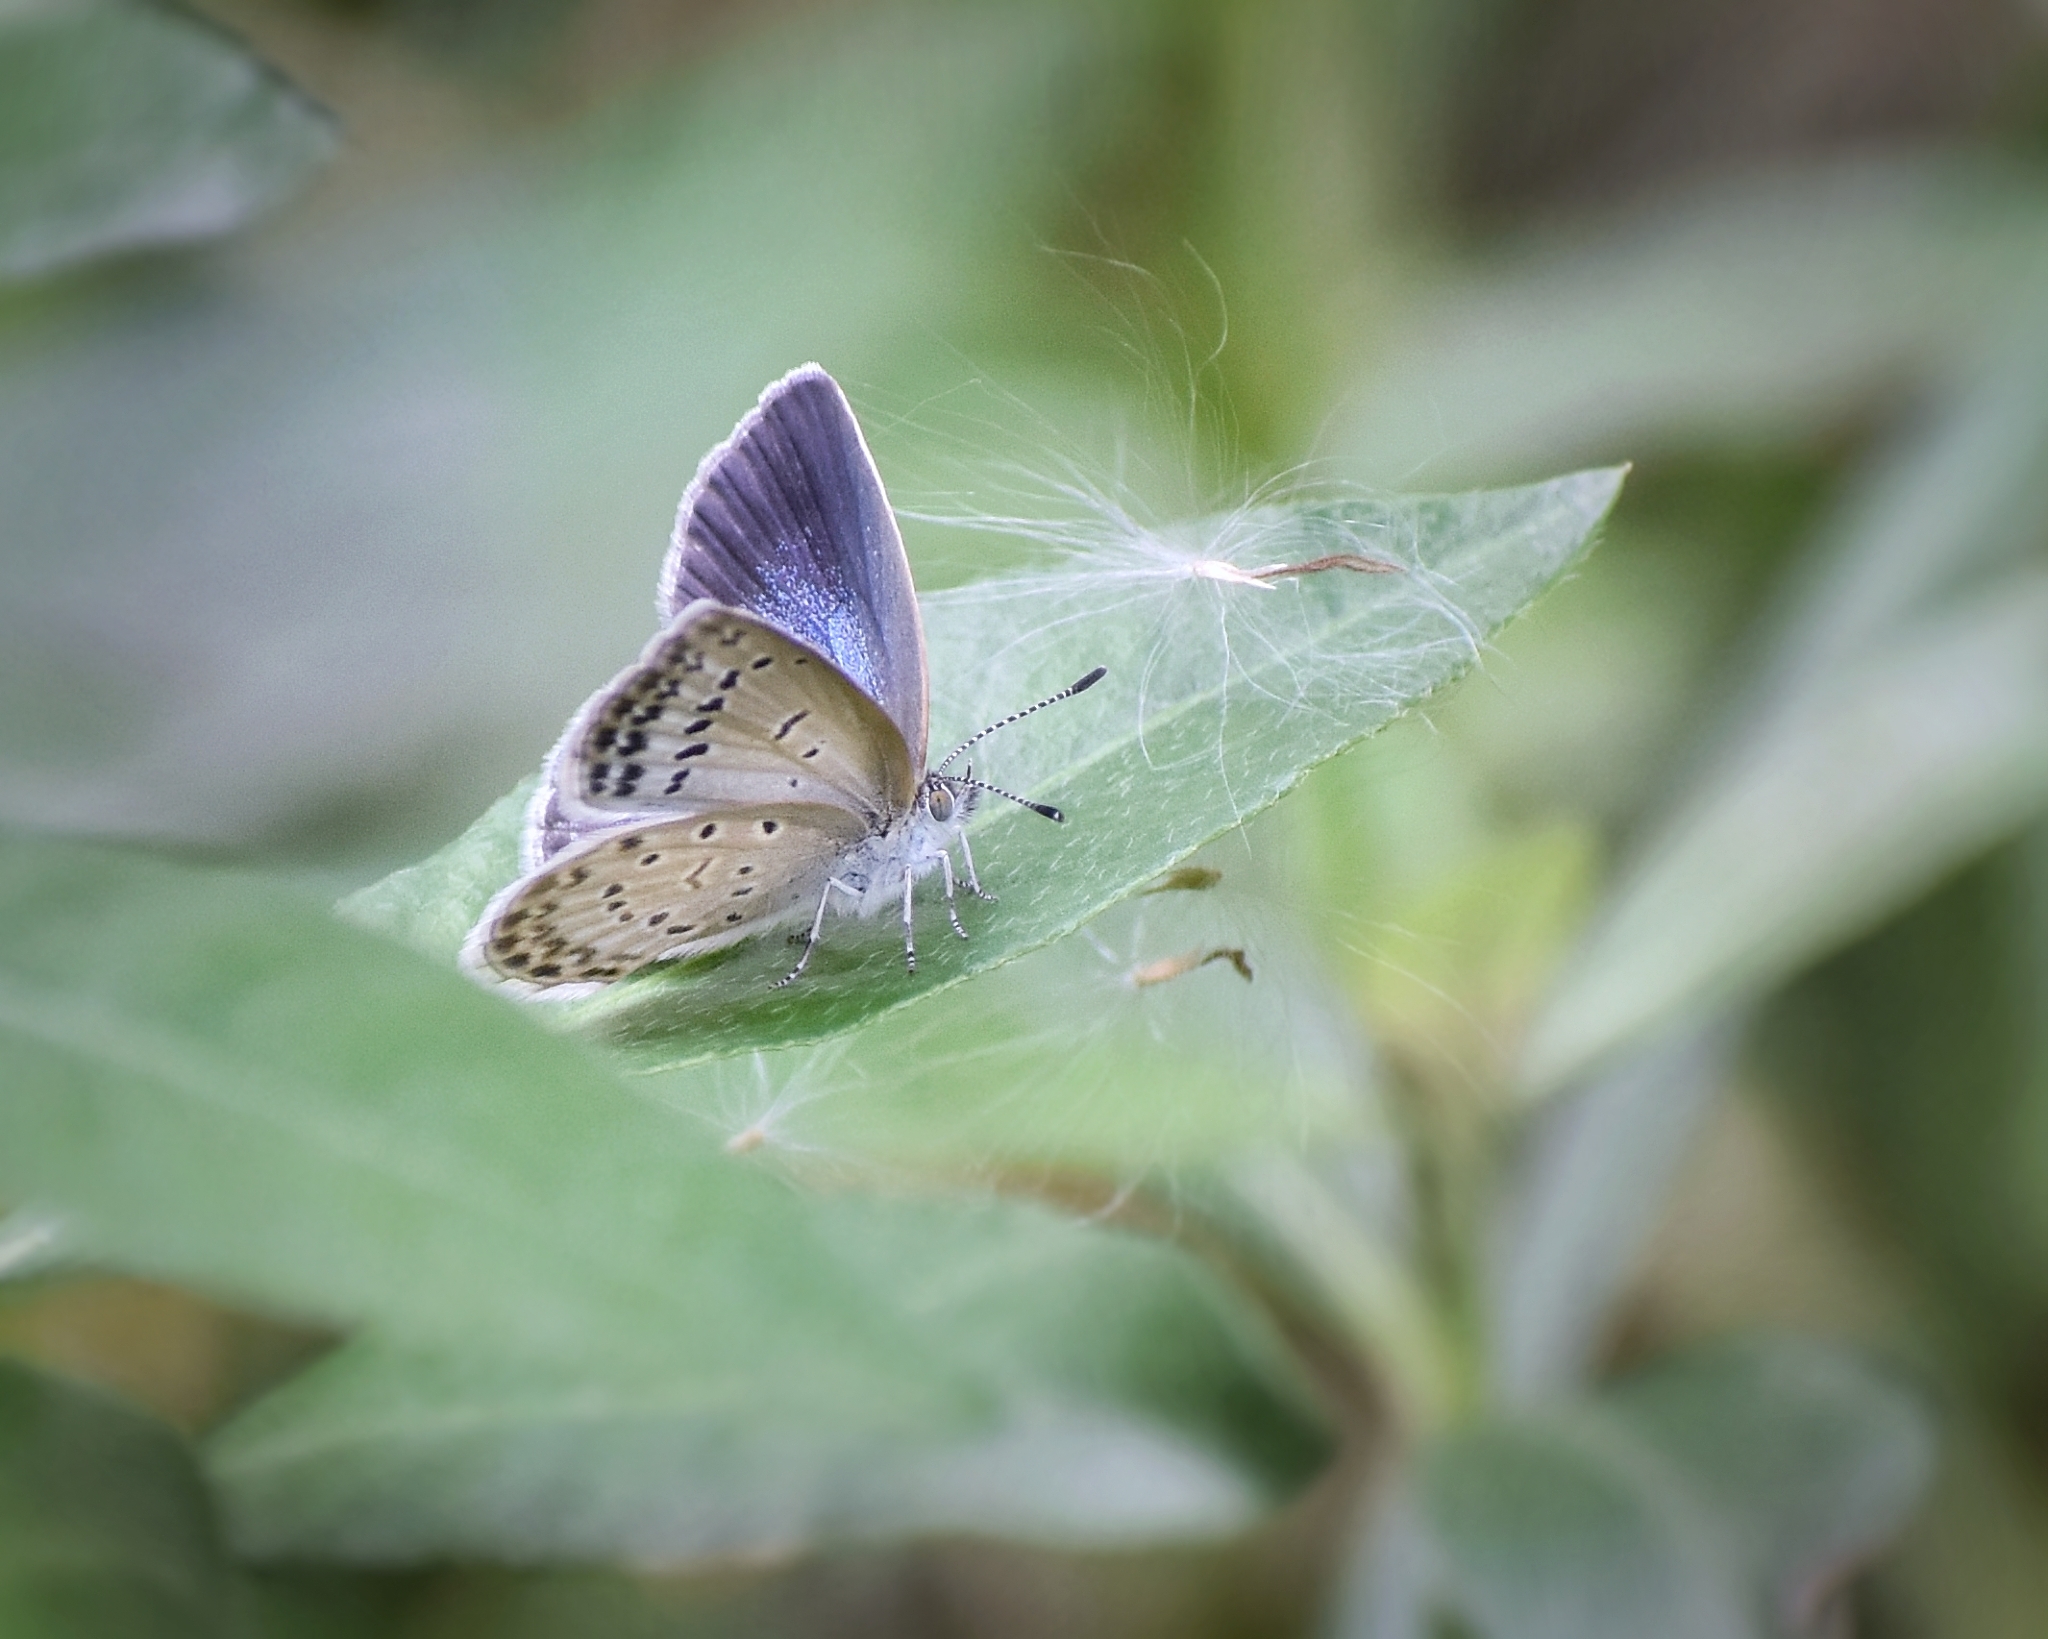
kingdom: Animalia
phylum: Arthropoda
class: Insecta
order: Lepidoptera
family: Lycaenidae
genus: Pseudozizeeria
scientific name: Pseudozizeeria maha
